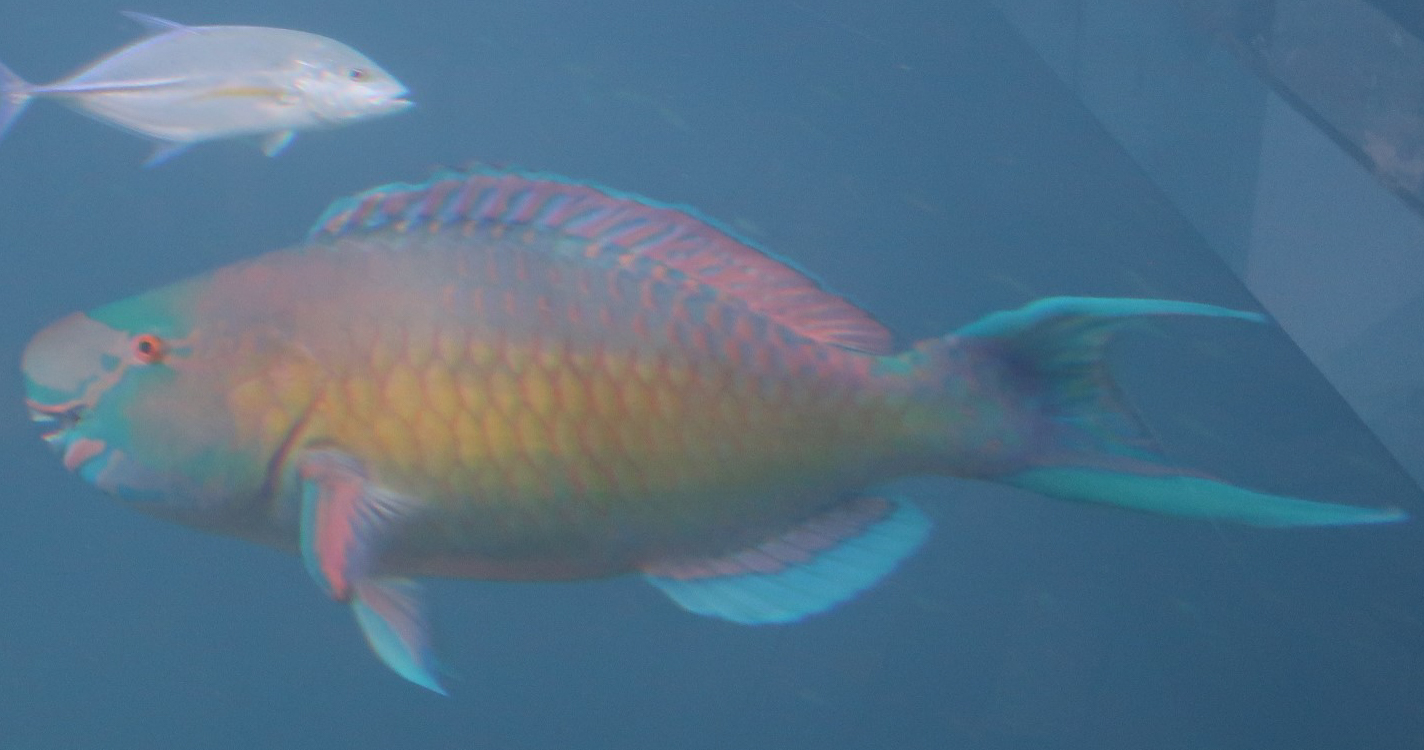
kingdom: Animalia
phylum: Chordata
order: Perciformes
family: Scaridae
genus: Scarus
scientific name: Scarus rubroviolaceus
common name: Ember parrotfish
